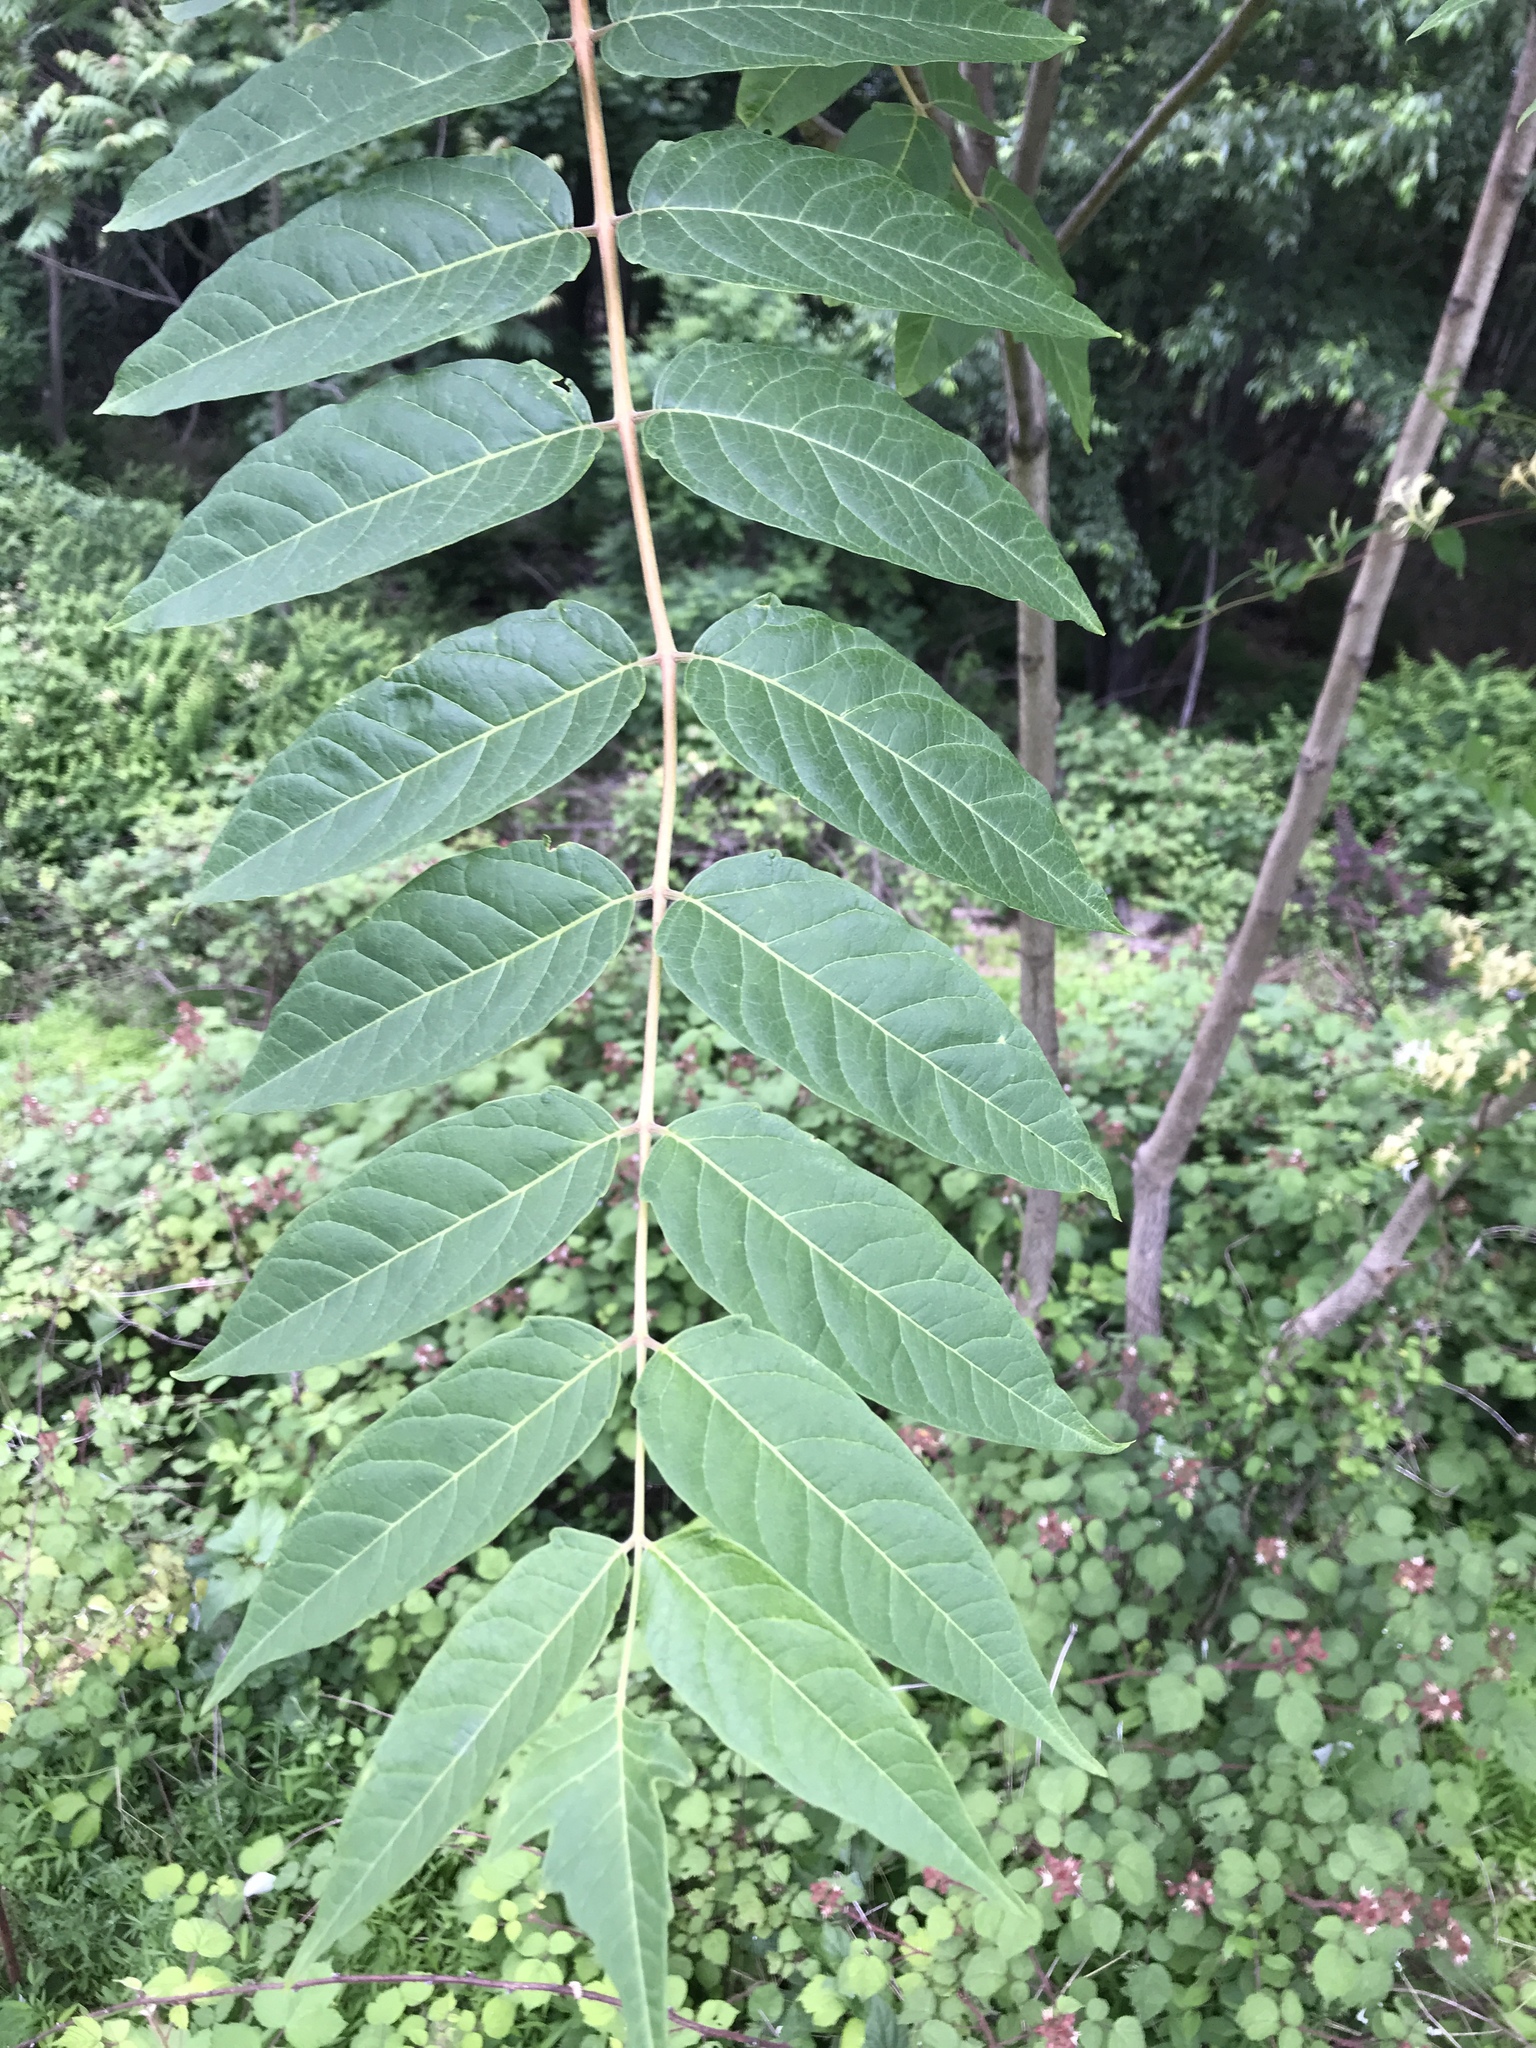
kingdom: Plantae
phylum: Tracheophyta
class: Magnoliopsida
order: Sapindales
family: Simaroubaceae
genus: Ailanthus
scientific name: Ailanthus altissima
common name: Tree-of-heaven
